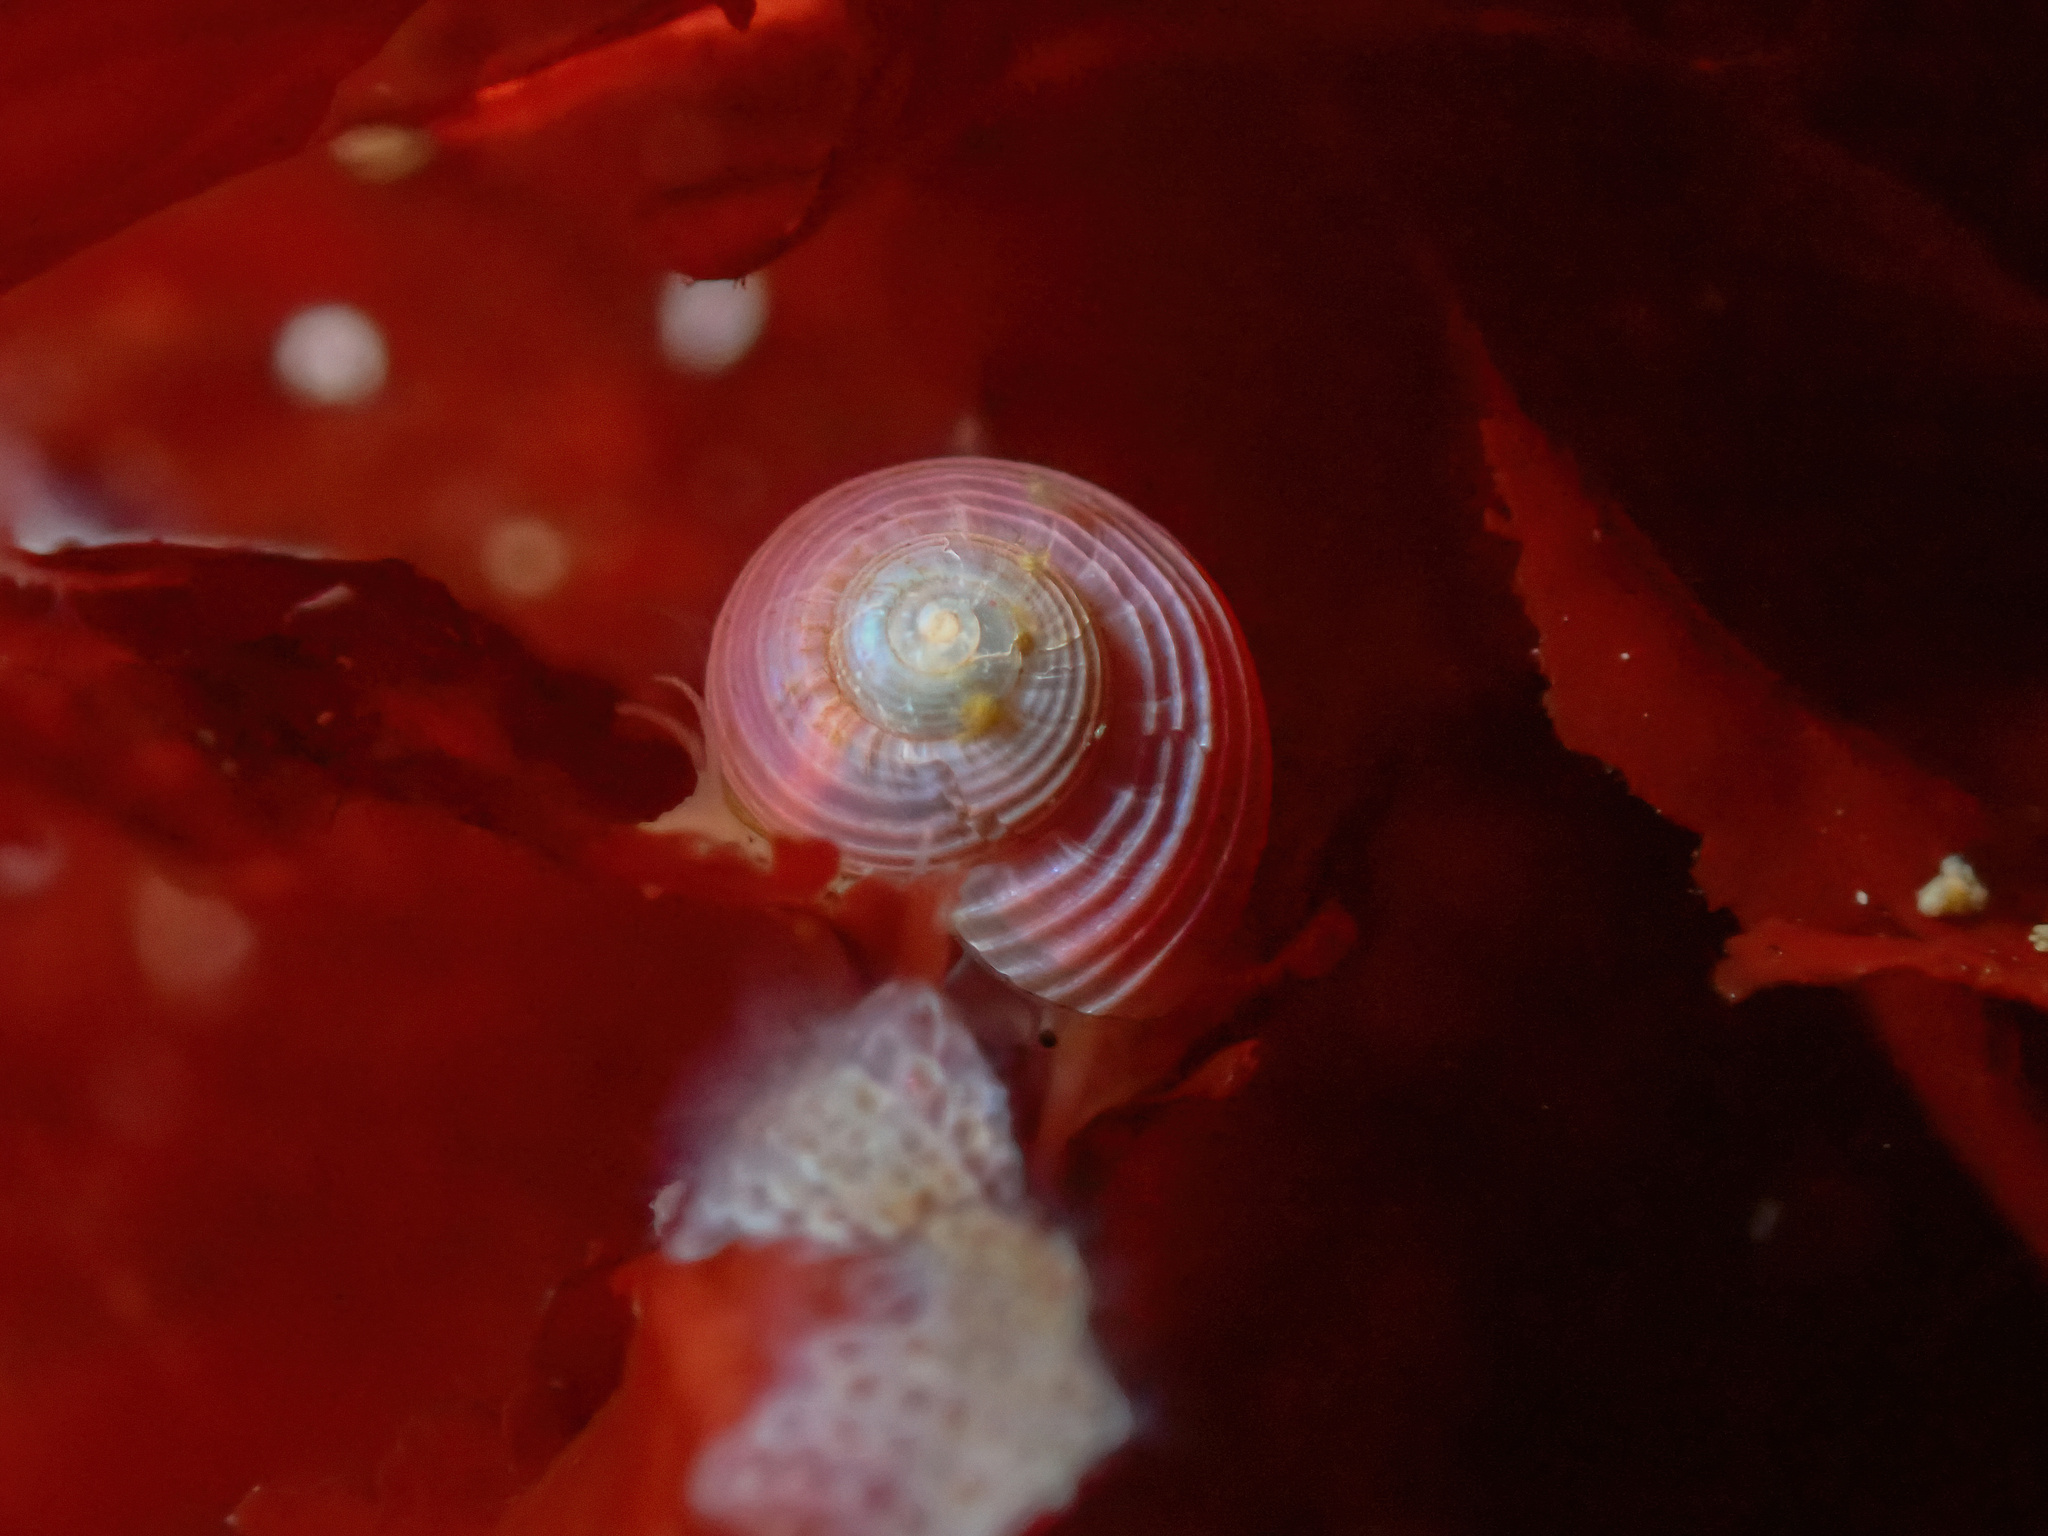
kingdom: Animalia
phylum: Mollusca
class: Gastropoda
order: Trochida
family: Margaritidae
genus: Margarites
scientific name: Margarites groenlandicus
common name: Greenland margarite
